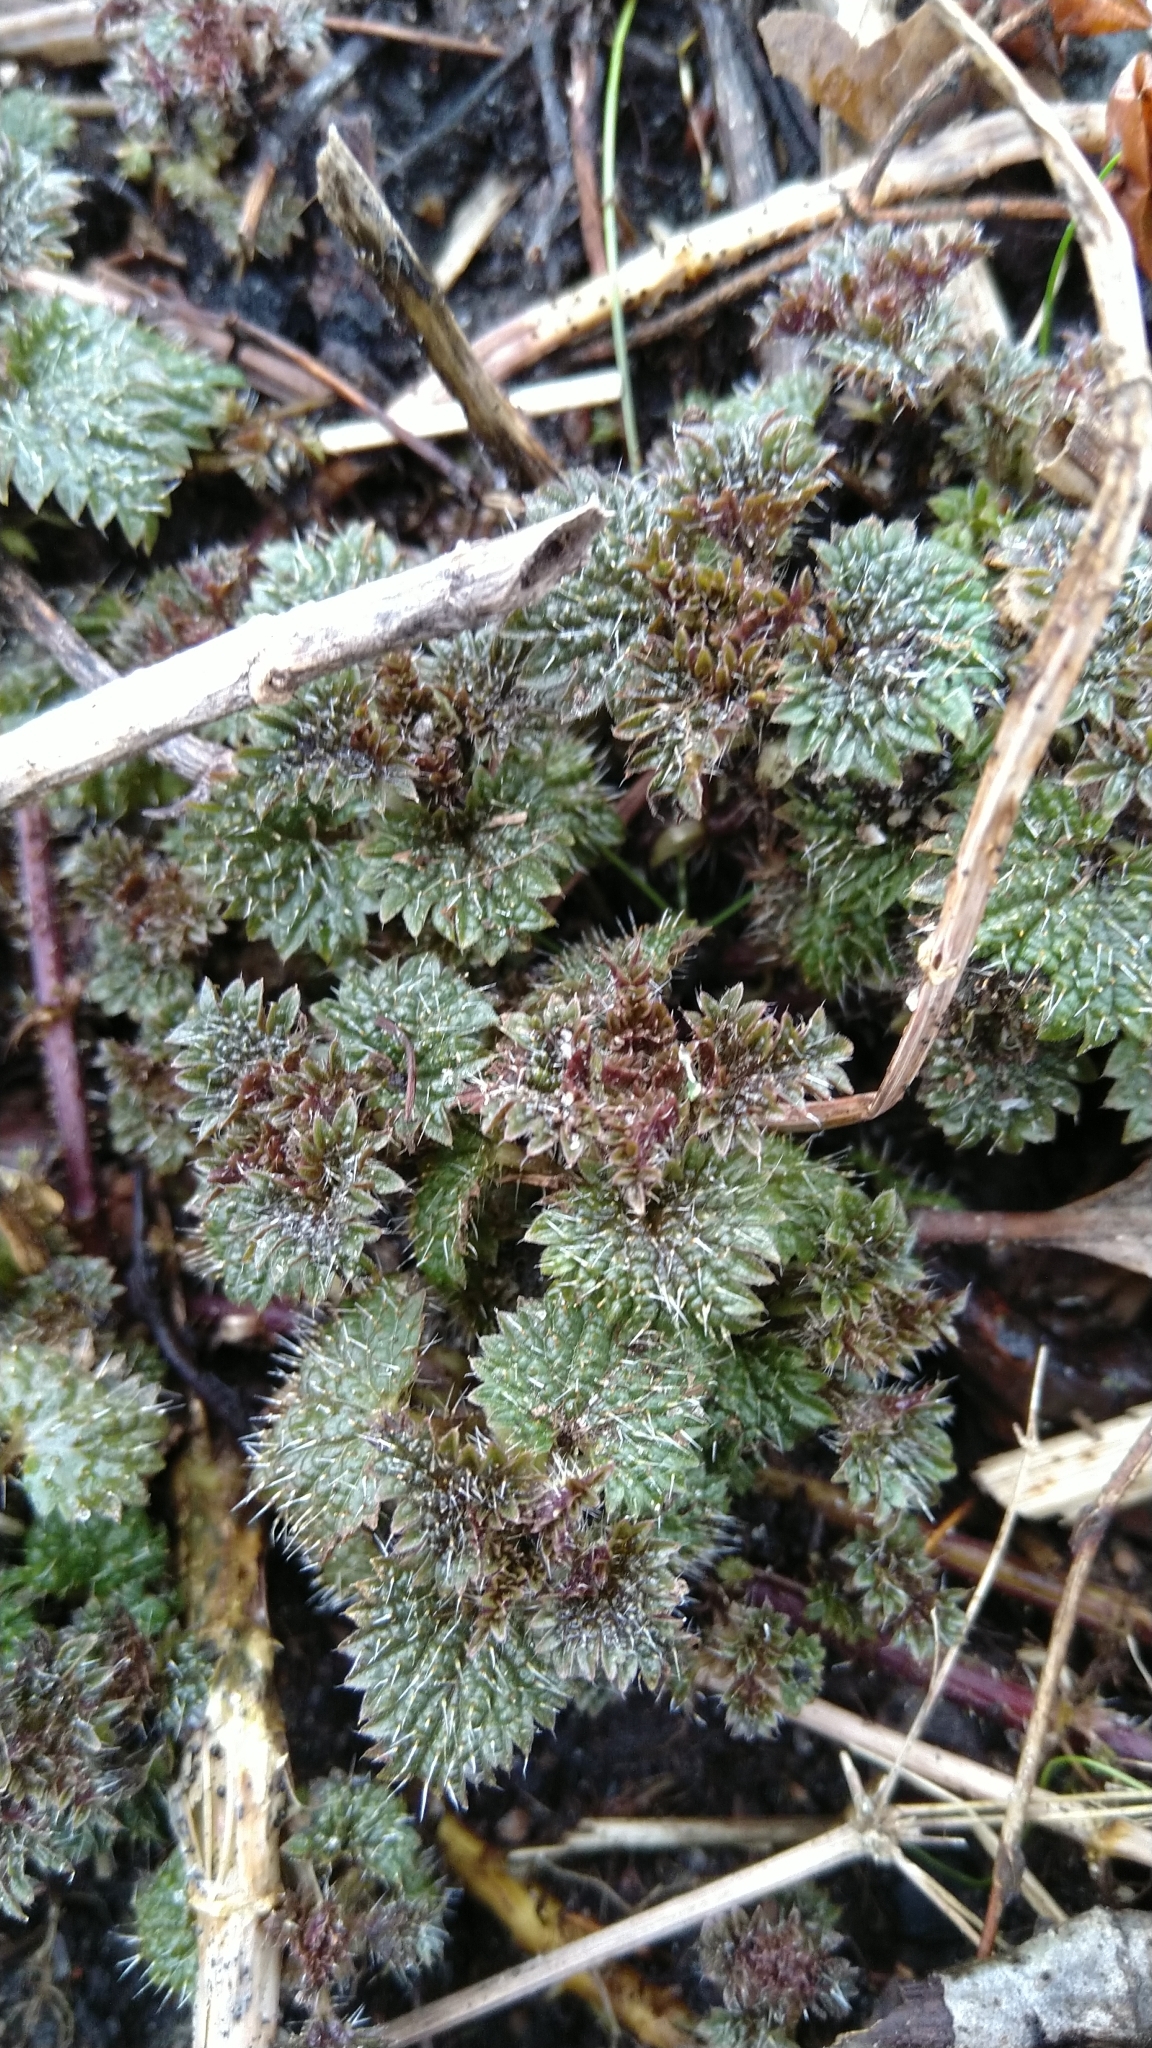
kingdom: Plantae
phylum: Tracheophyta
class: Magnoliopsida
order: Rosales
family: Urticaceae
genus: Urtica
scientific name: Urtica dioica
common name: Common nettle
